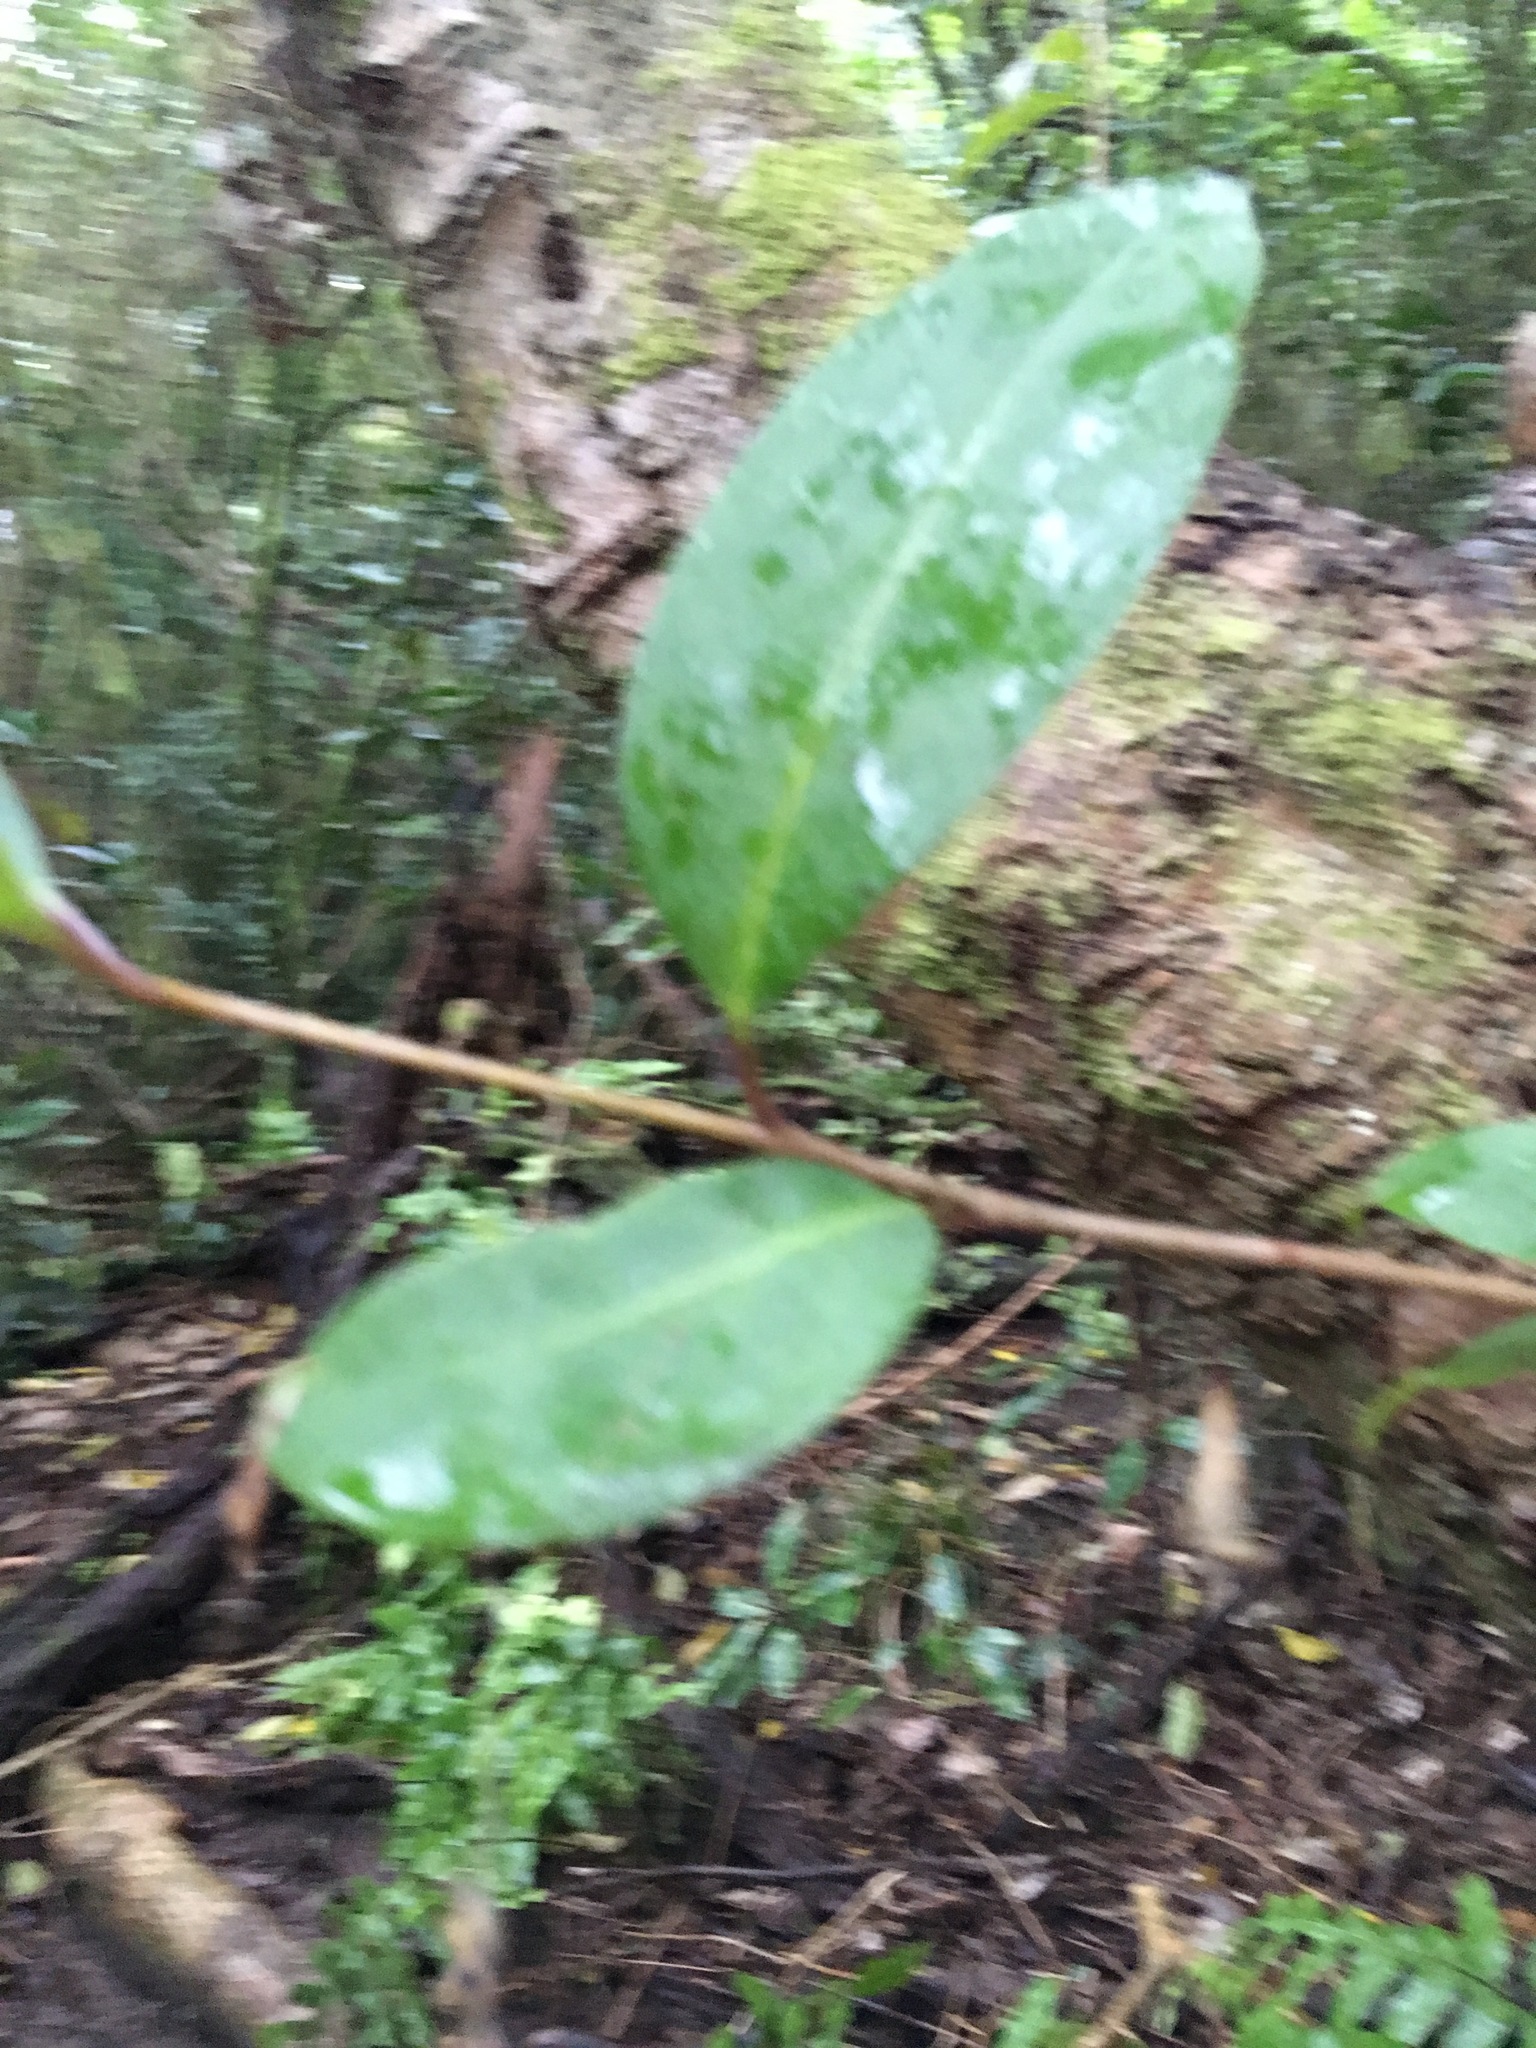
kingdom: Plantae
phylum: Tracheophyta
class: Magnoliopsida
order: Lamiales
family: Oleaceae
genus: Ligustrum
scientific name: Ligustrum lucidum
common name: Glossy privet
